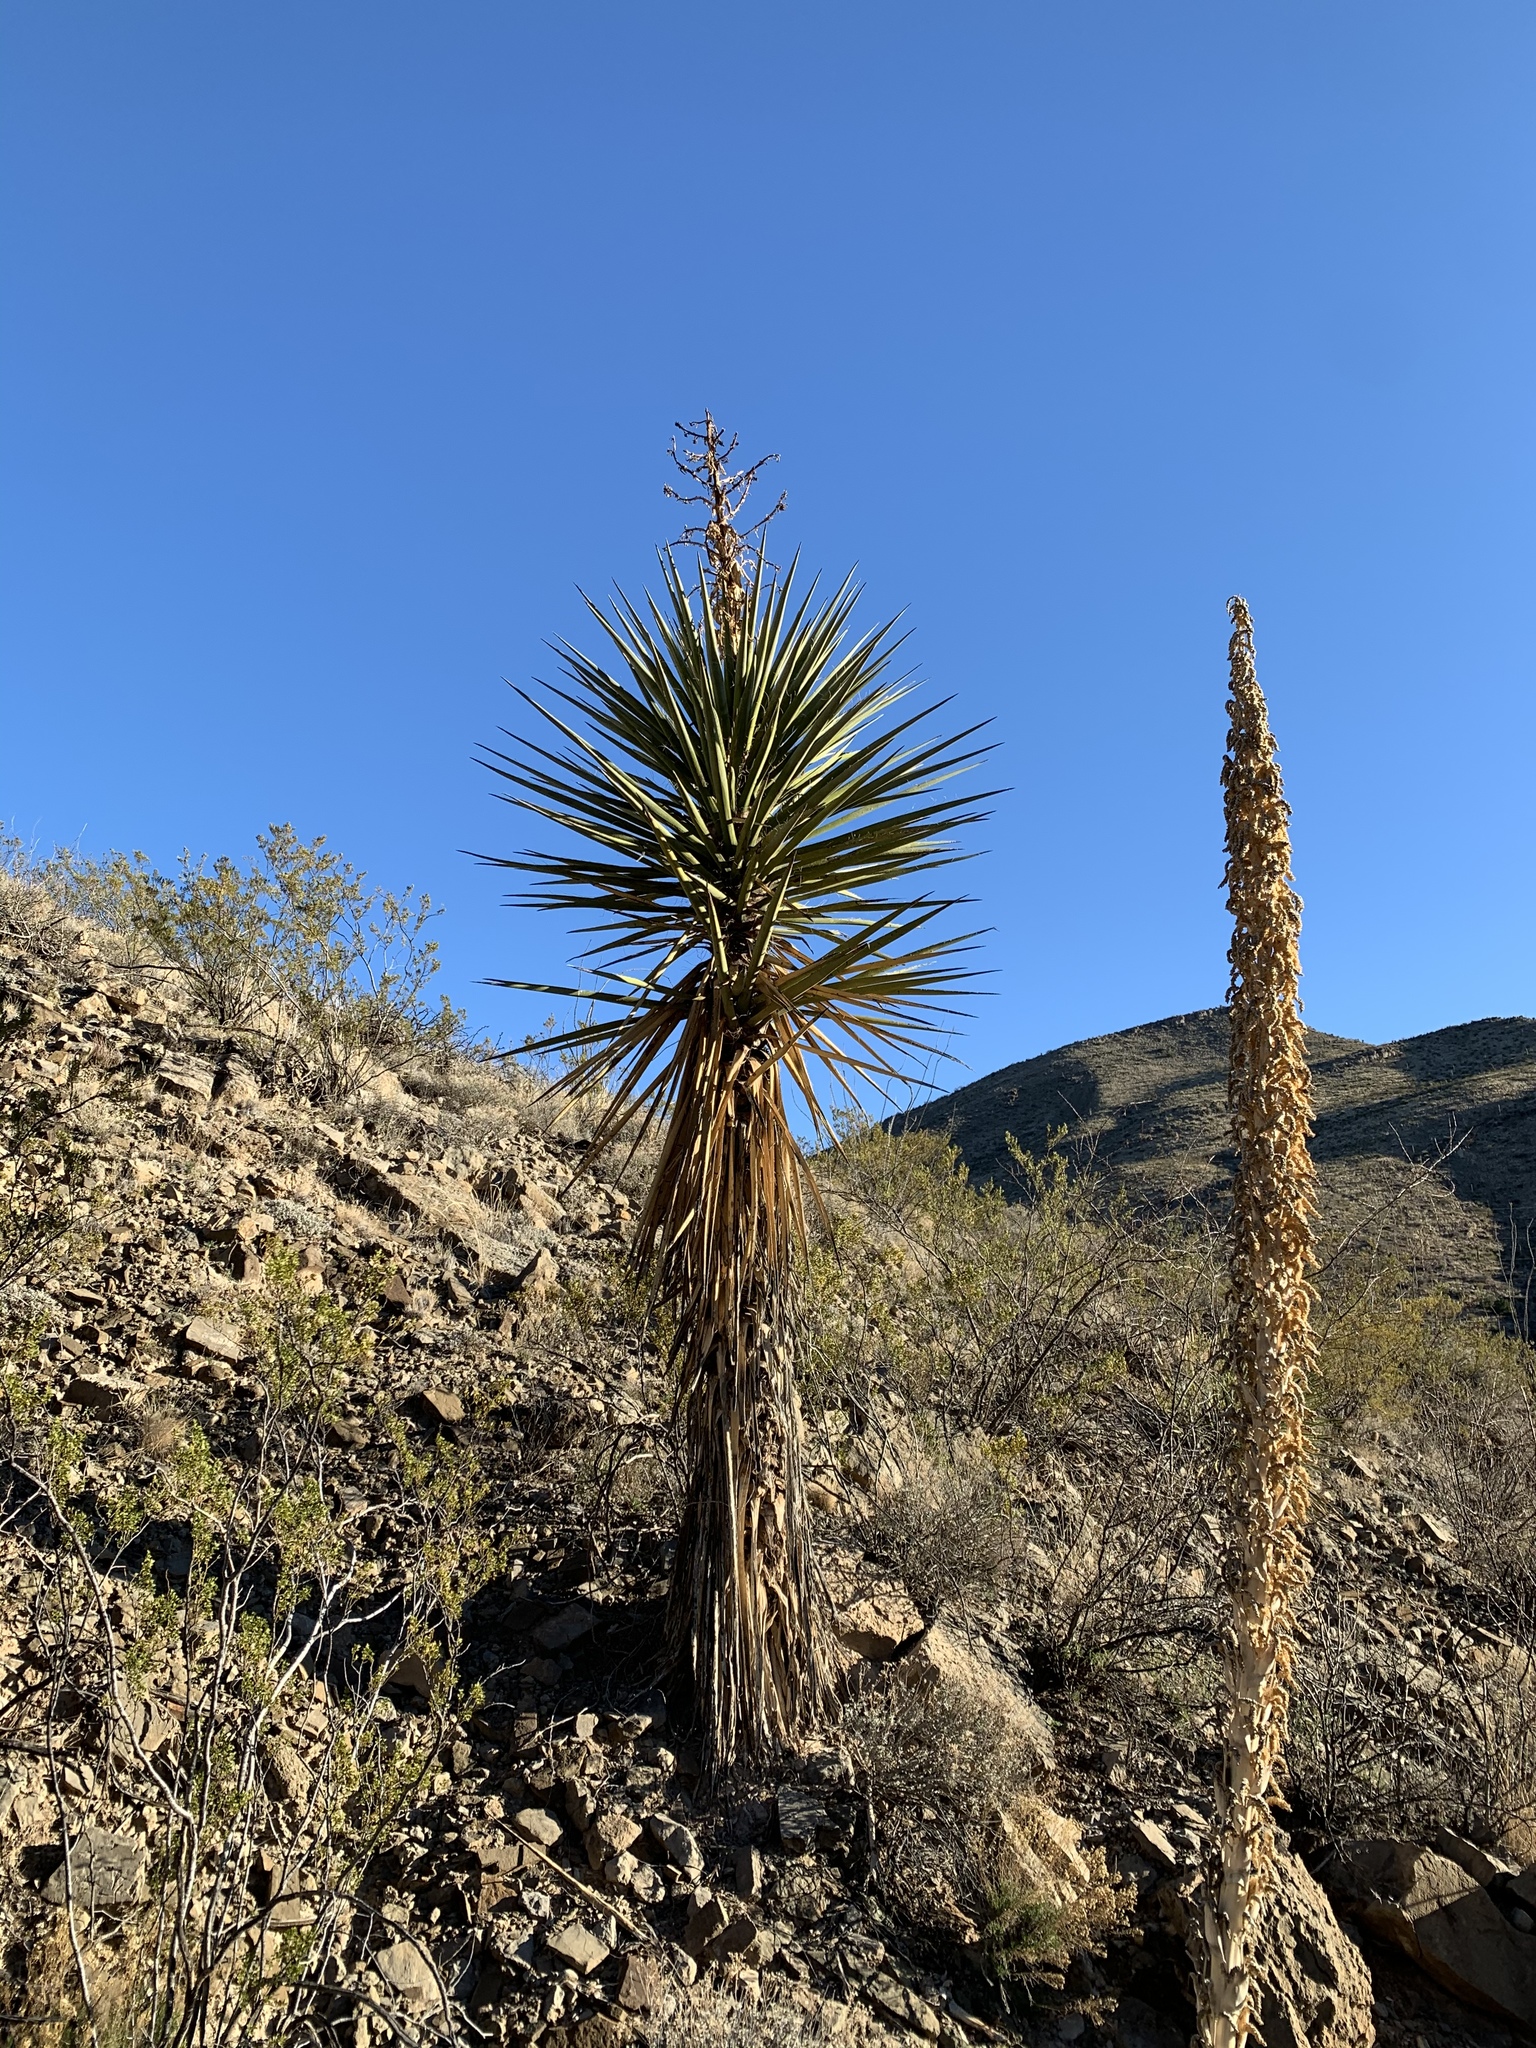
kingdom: Plantae
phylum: Tracheophyta
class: Liliopsida
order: Asparagales
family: Asparagaceae
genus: Yucca
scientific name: Yucca treculiana
